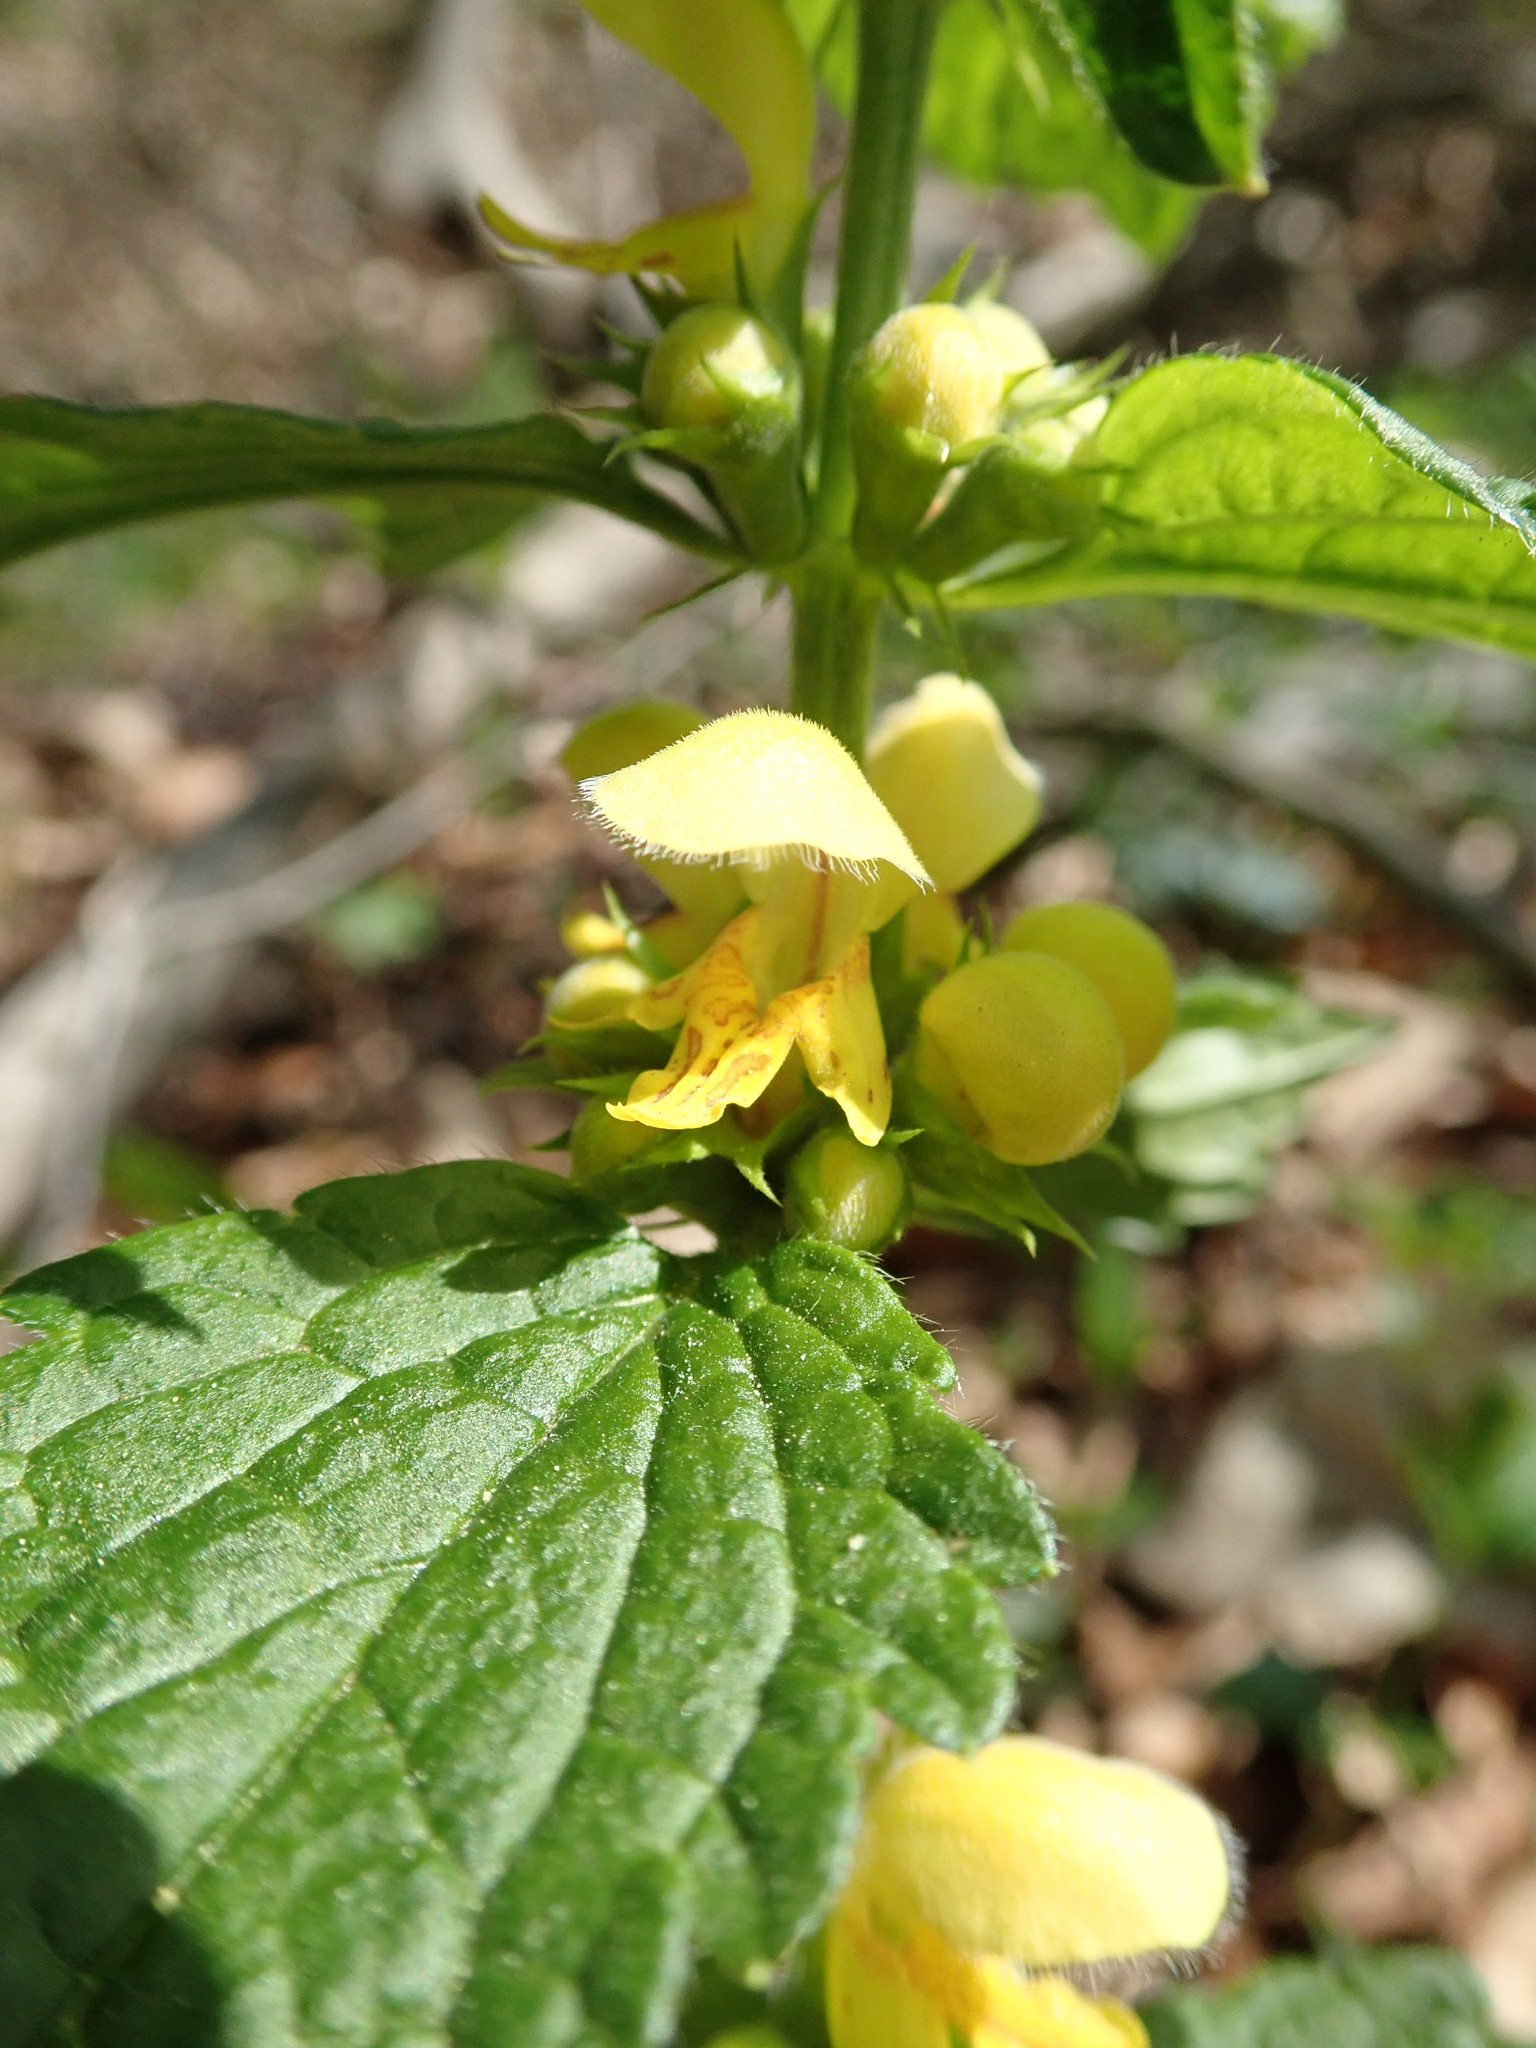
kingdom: Plantae
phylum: Tracheophyta
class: Magnoliopsida
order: Lamiales
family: Lamiaceae
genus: Lamium
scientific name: Lamium galeobdolon
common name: Yellow archangel
